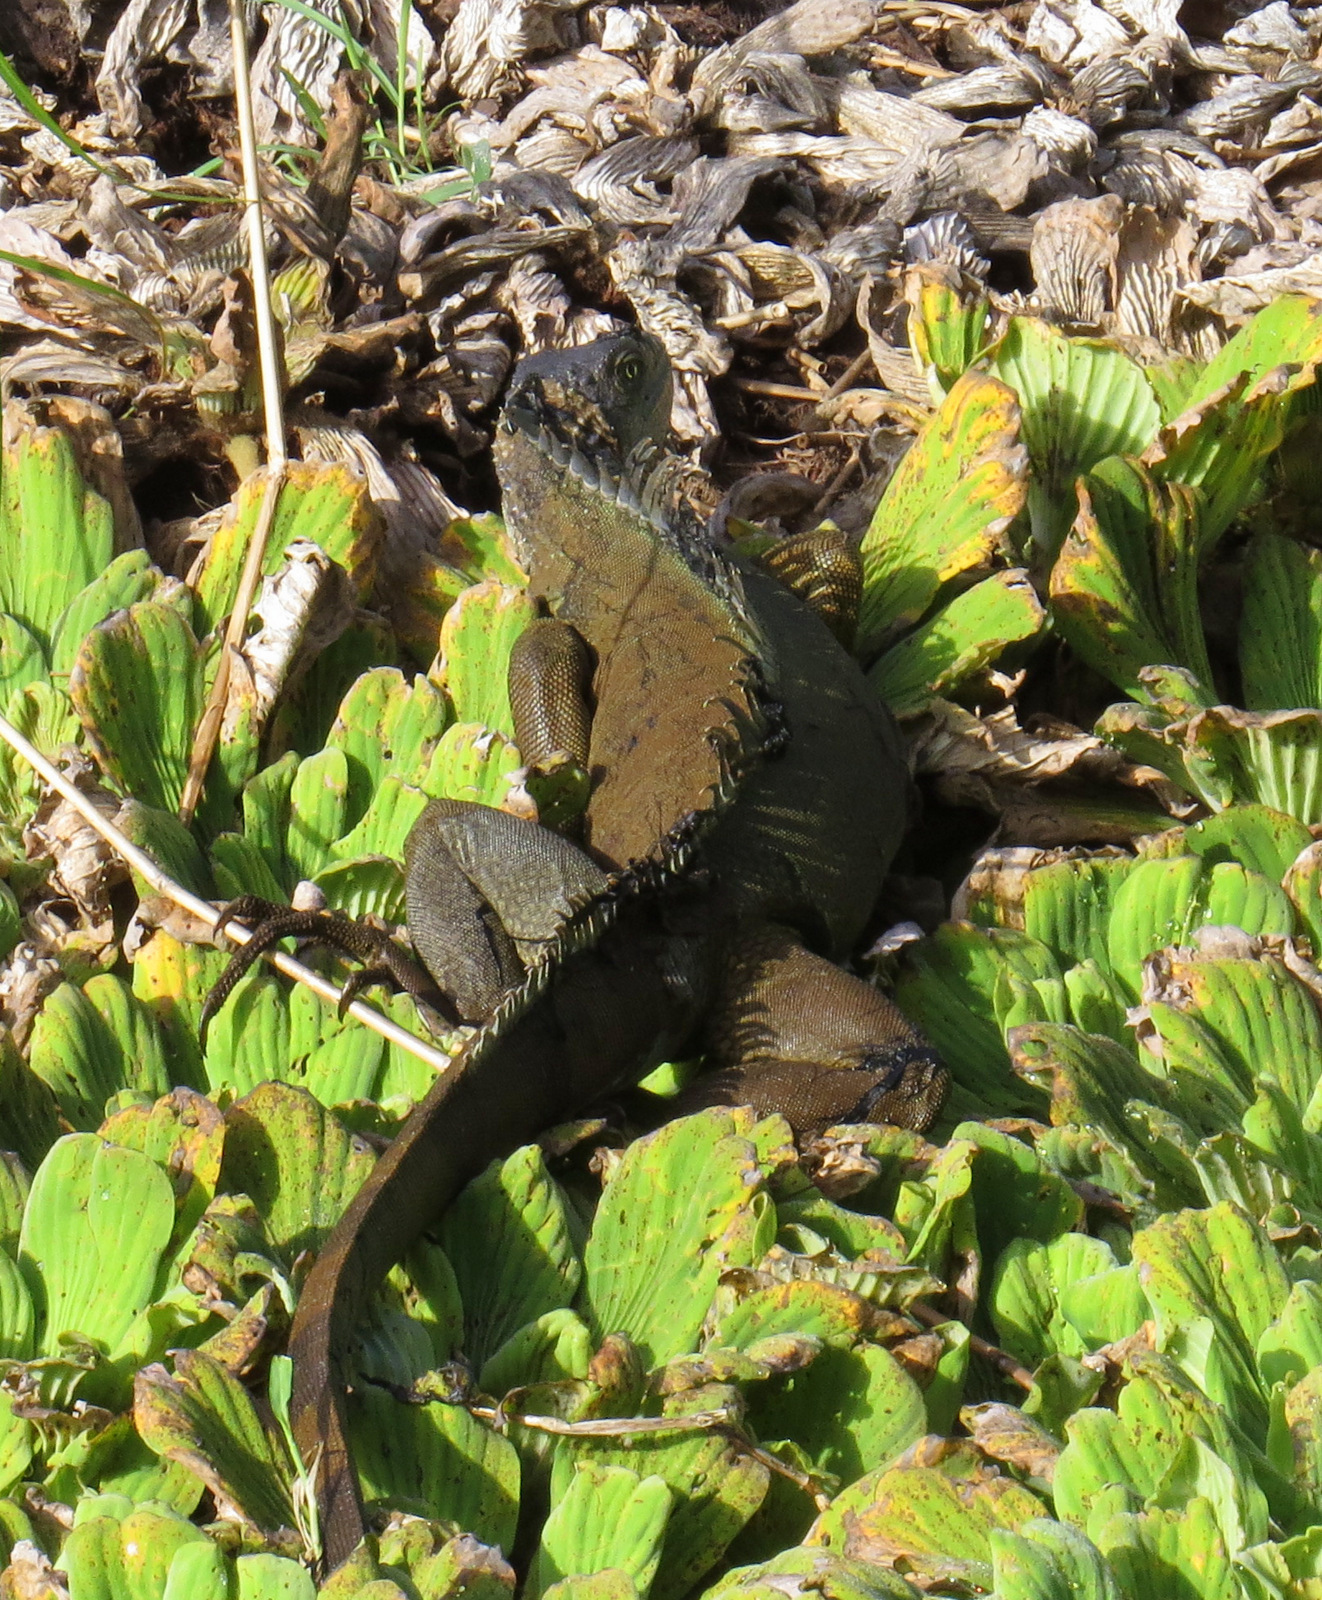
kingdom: Animalia
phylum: Chordata
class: Squamata
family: Iguanidae
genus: Iguana
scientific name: Iguana iguana
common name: Green iguana
